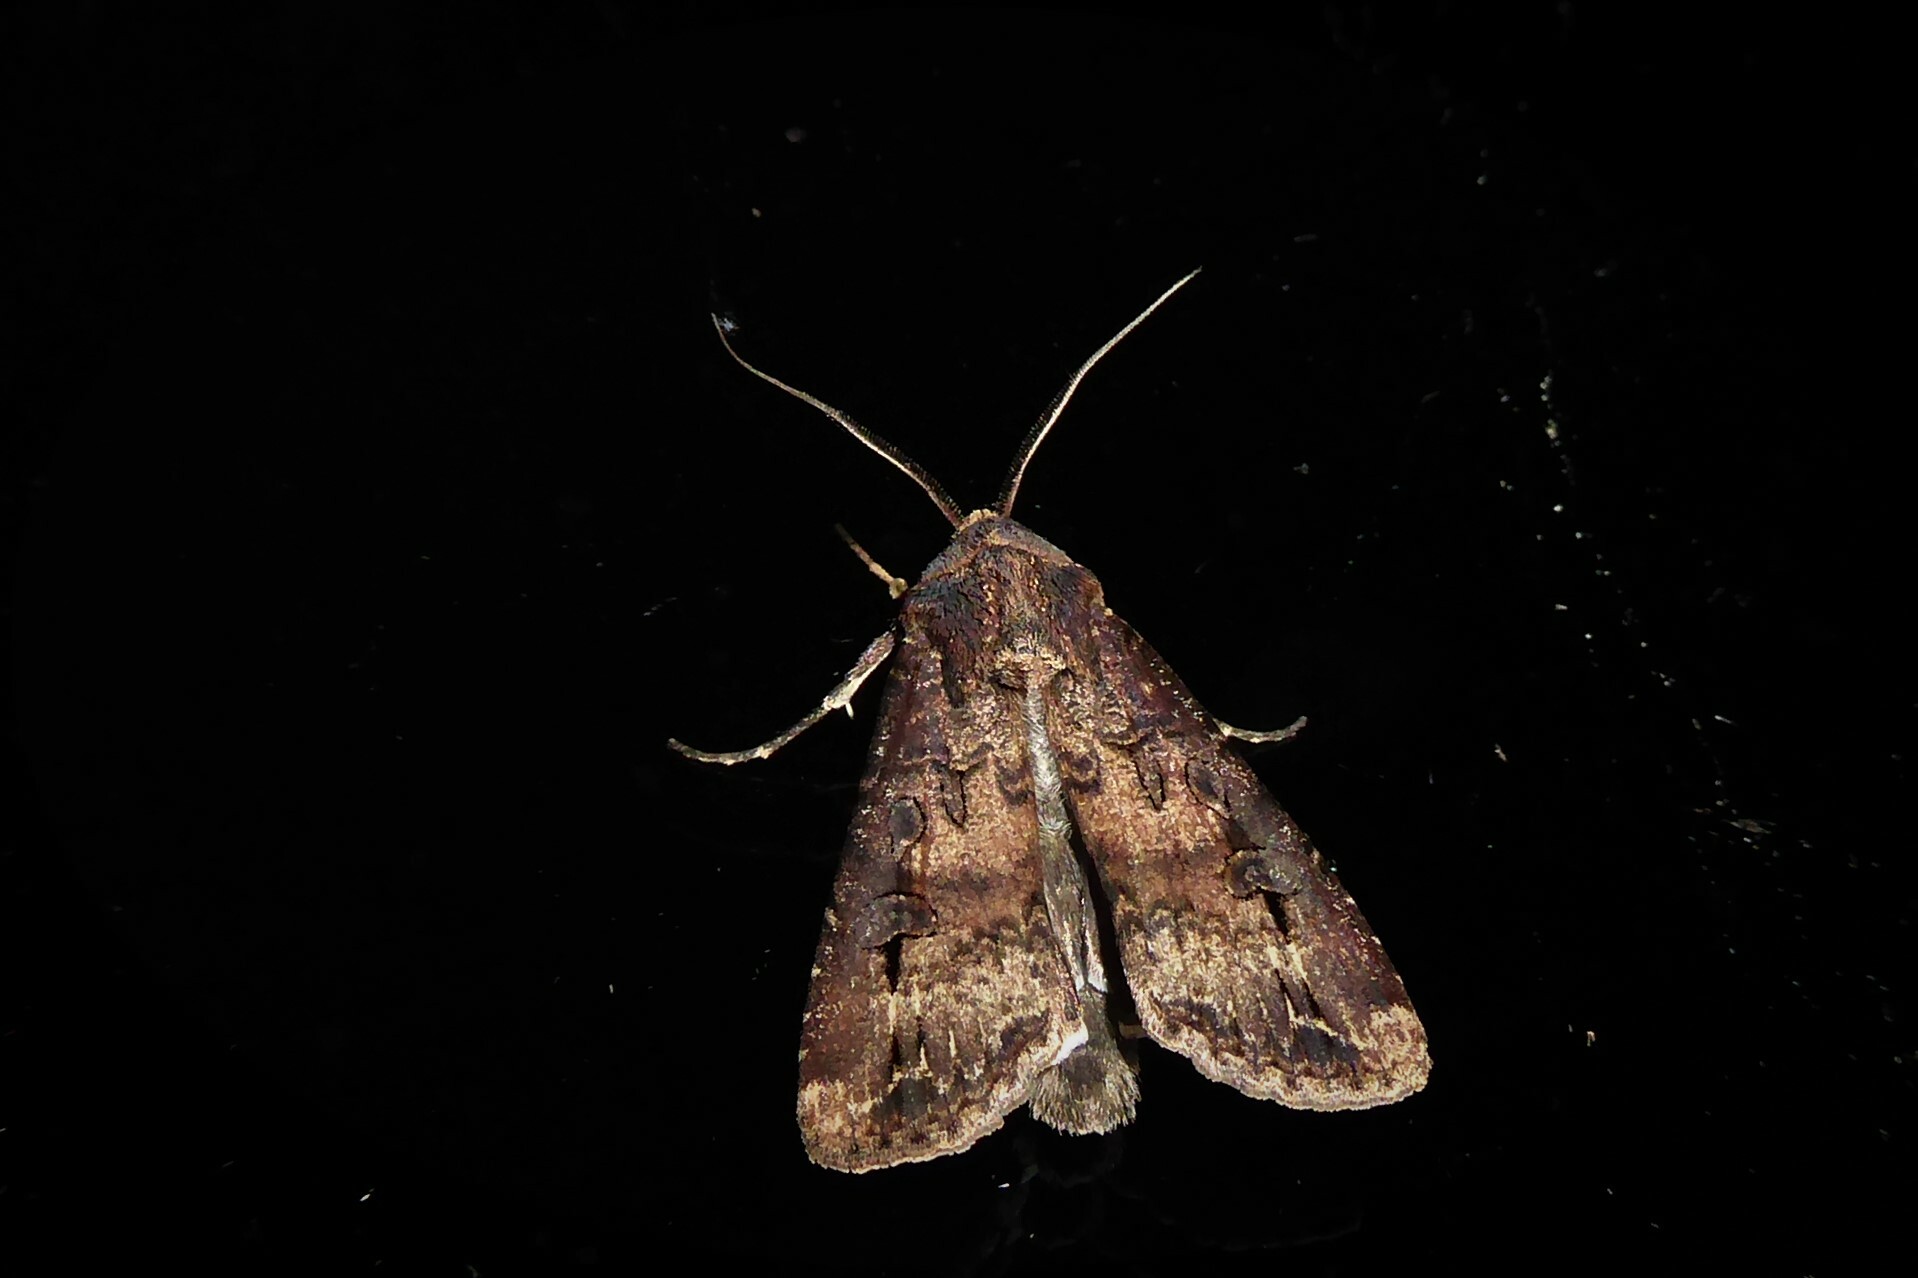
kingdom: Animalia
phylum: Arthropoda
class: Insecta
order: Lepidoptera
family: Noctuidae
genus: Agrotis
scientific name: Agrotis ipsilon
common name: Dark sword-grass
